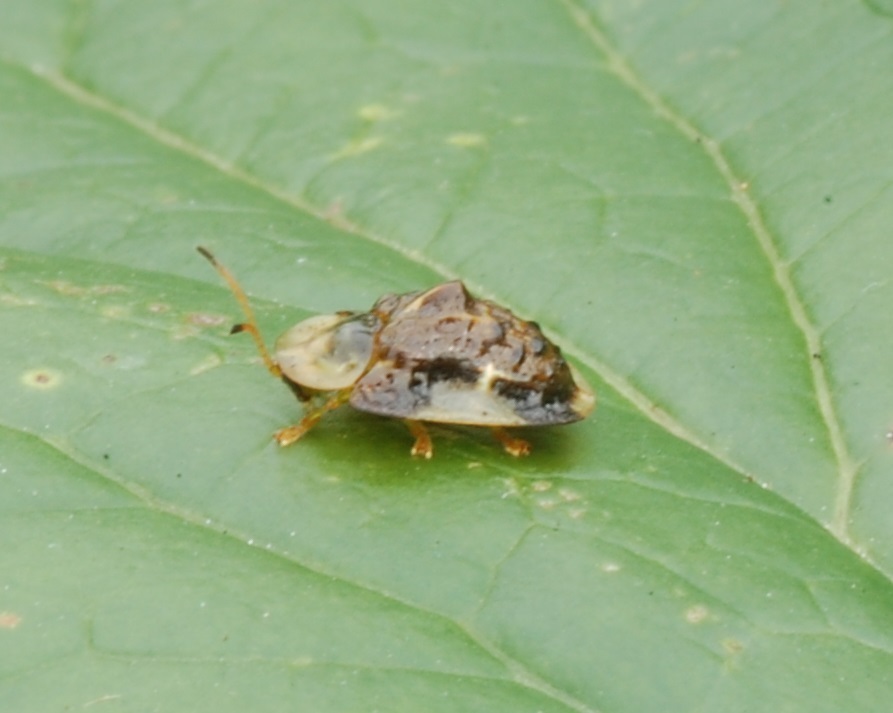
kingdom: Animalia
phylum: Arthropoda
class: Insecta
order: Coleoptera
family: Chrysomelidae
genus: Helocassis
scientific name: Helocassis clavata
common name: Clavate tortoise beetle
